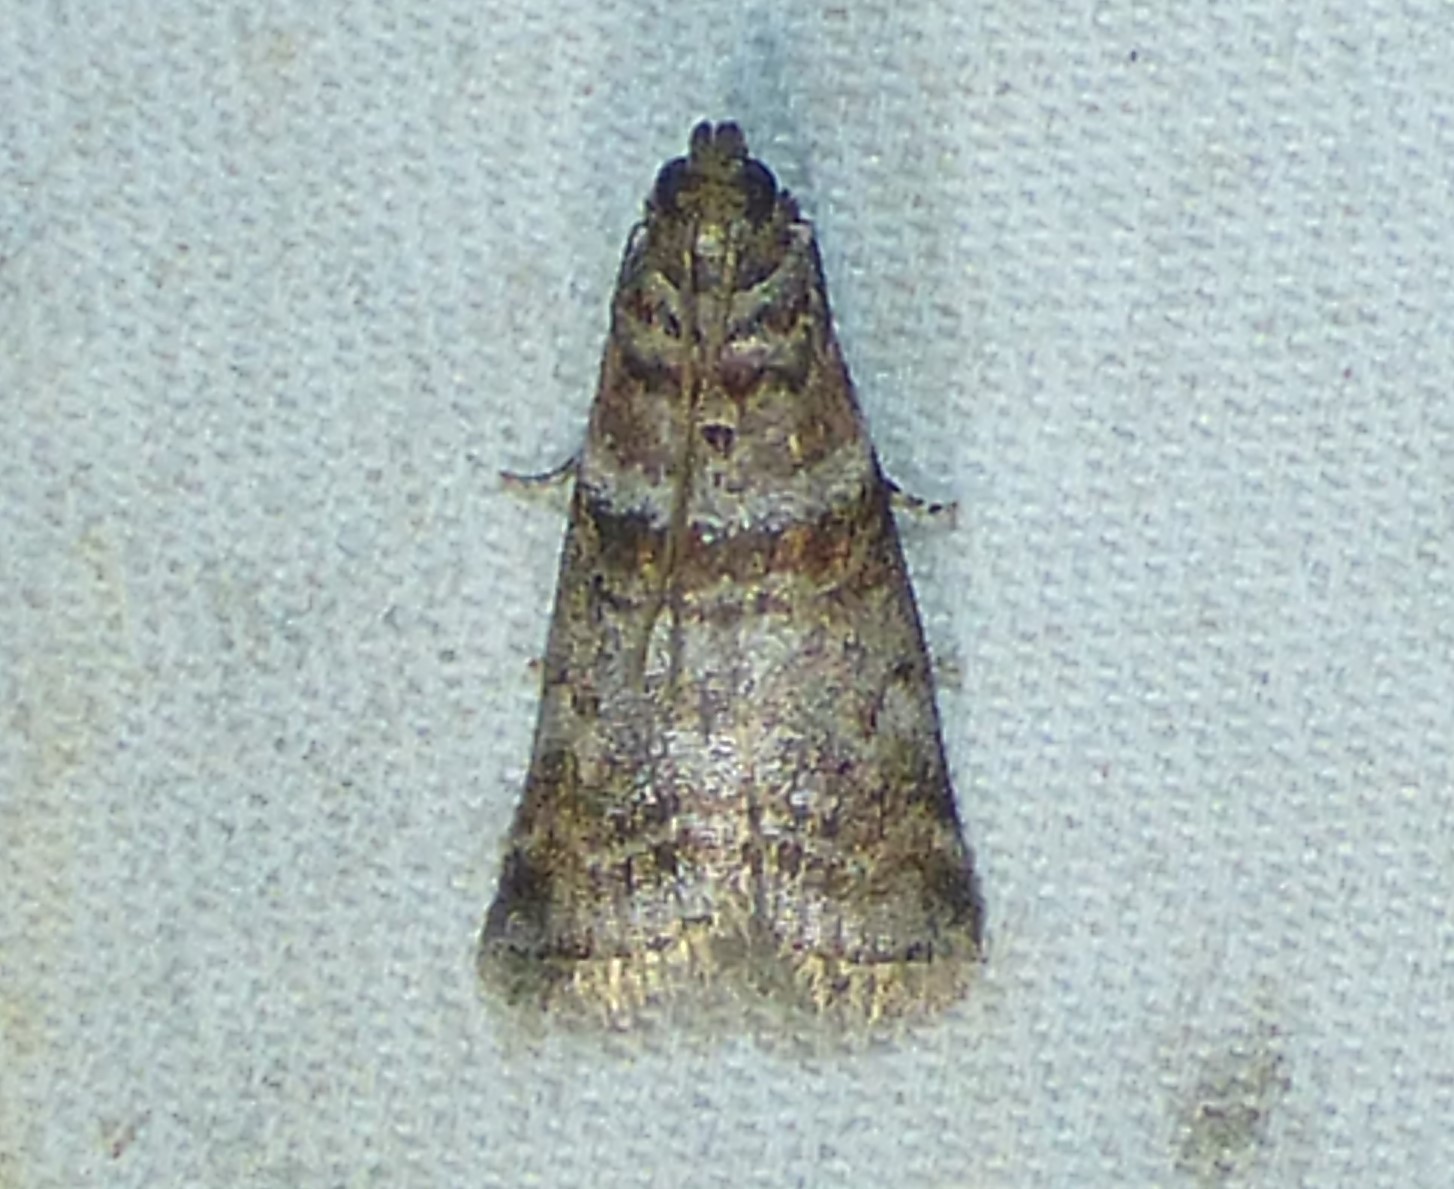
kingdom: Animalia
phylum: Arthropoda
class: Insecta
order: Lepidoptera
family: Pyralidae
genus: Sciota
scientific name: Sciota uvinella
